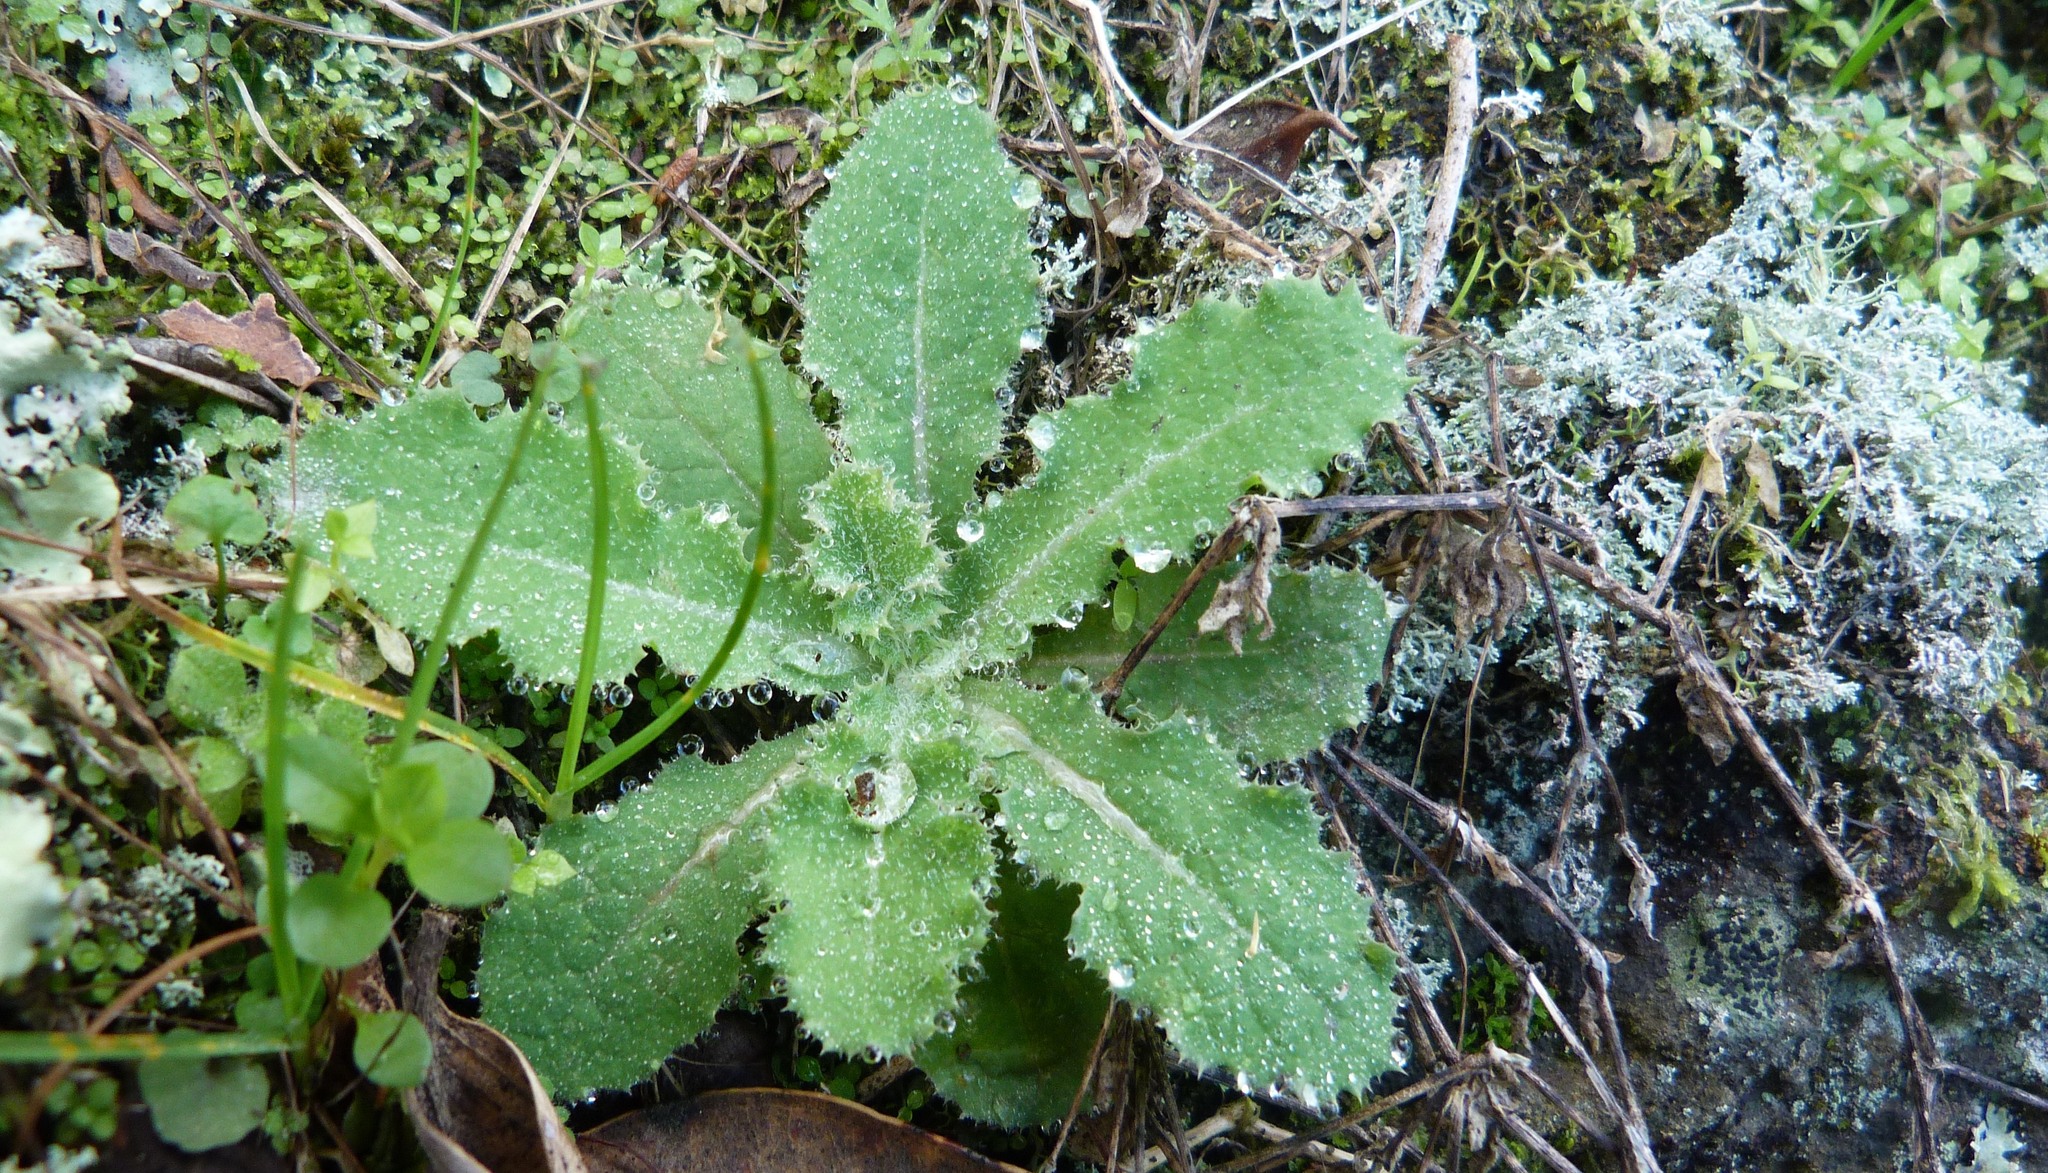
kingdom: Plantae
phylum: Tracheophyta
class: Magnoliopsida
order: Asterales
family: Asteraceae
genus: Sonchus
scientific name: Sonchus kirkii
